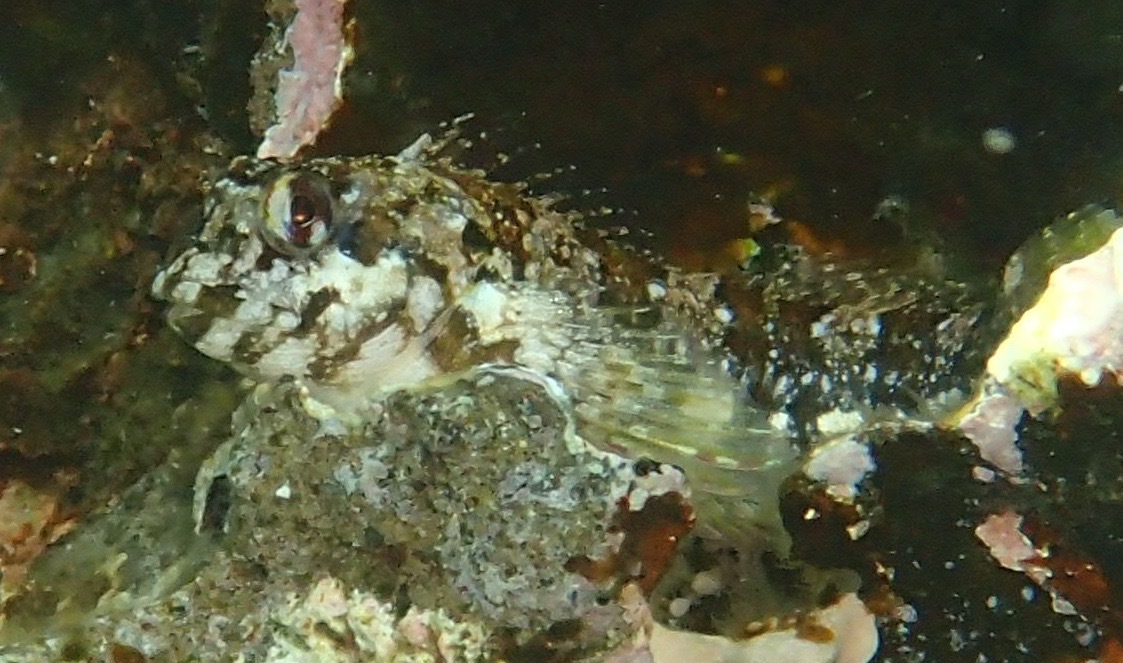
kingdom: Animalia
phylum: Chordata
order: Perciformes
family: Blenniidae
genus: Lipophrys
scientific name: Lipophrys trigloides
